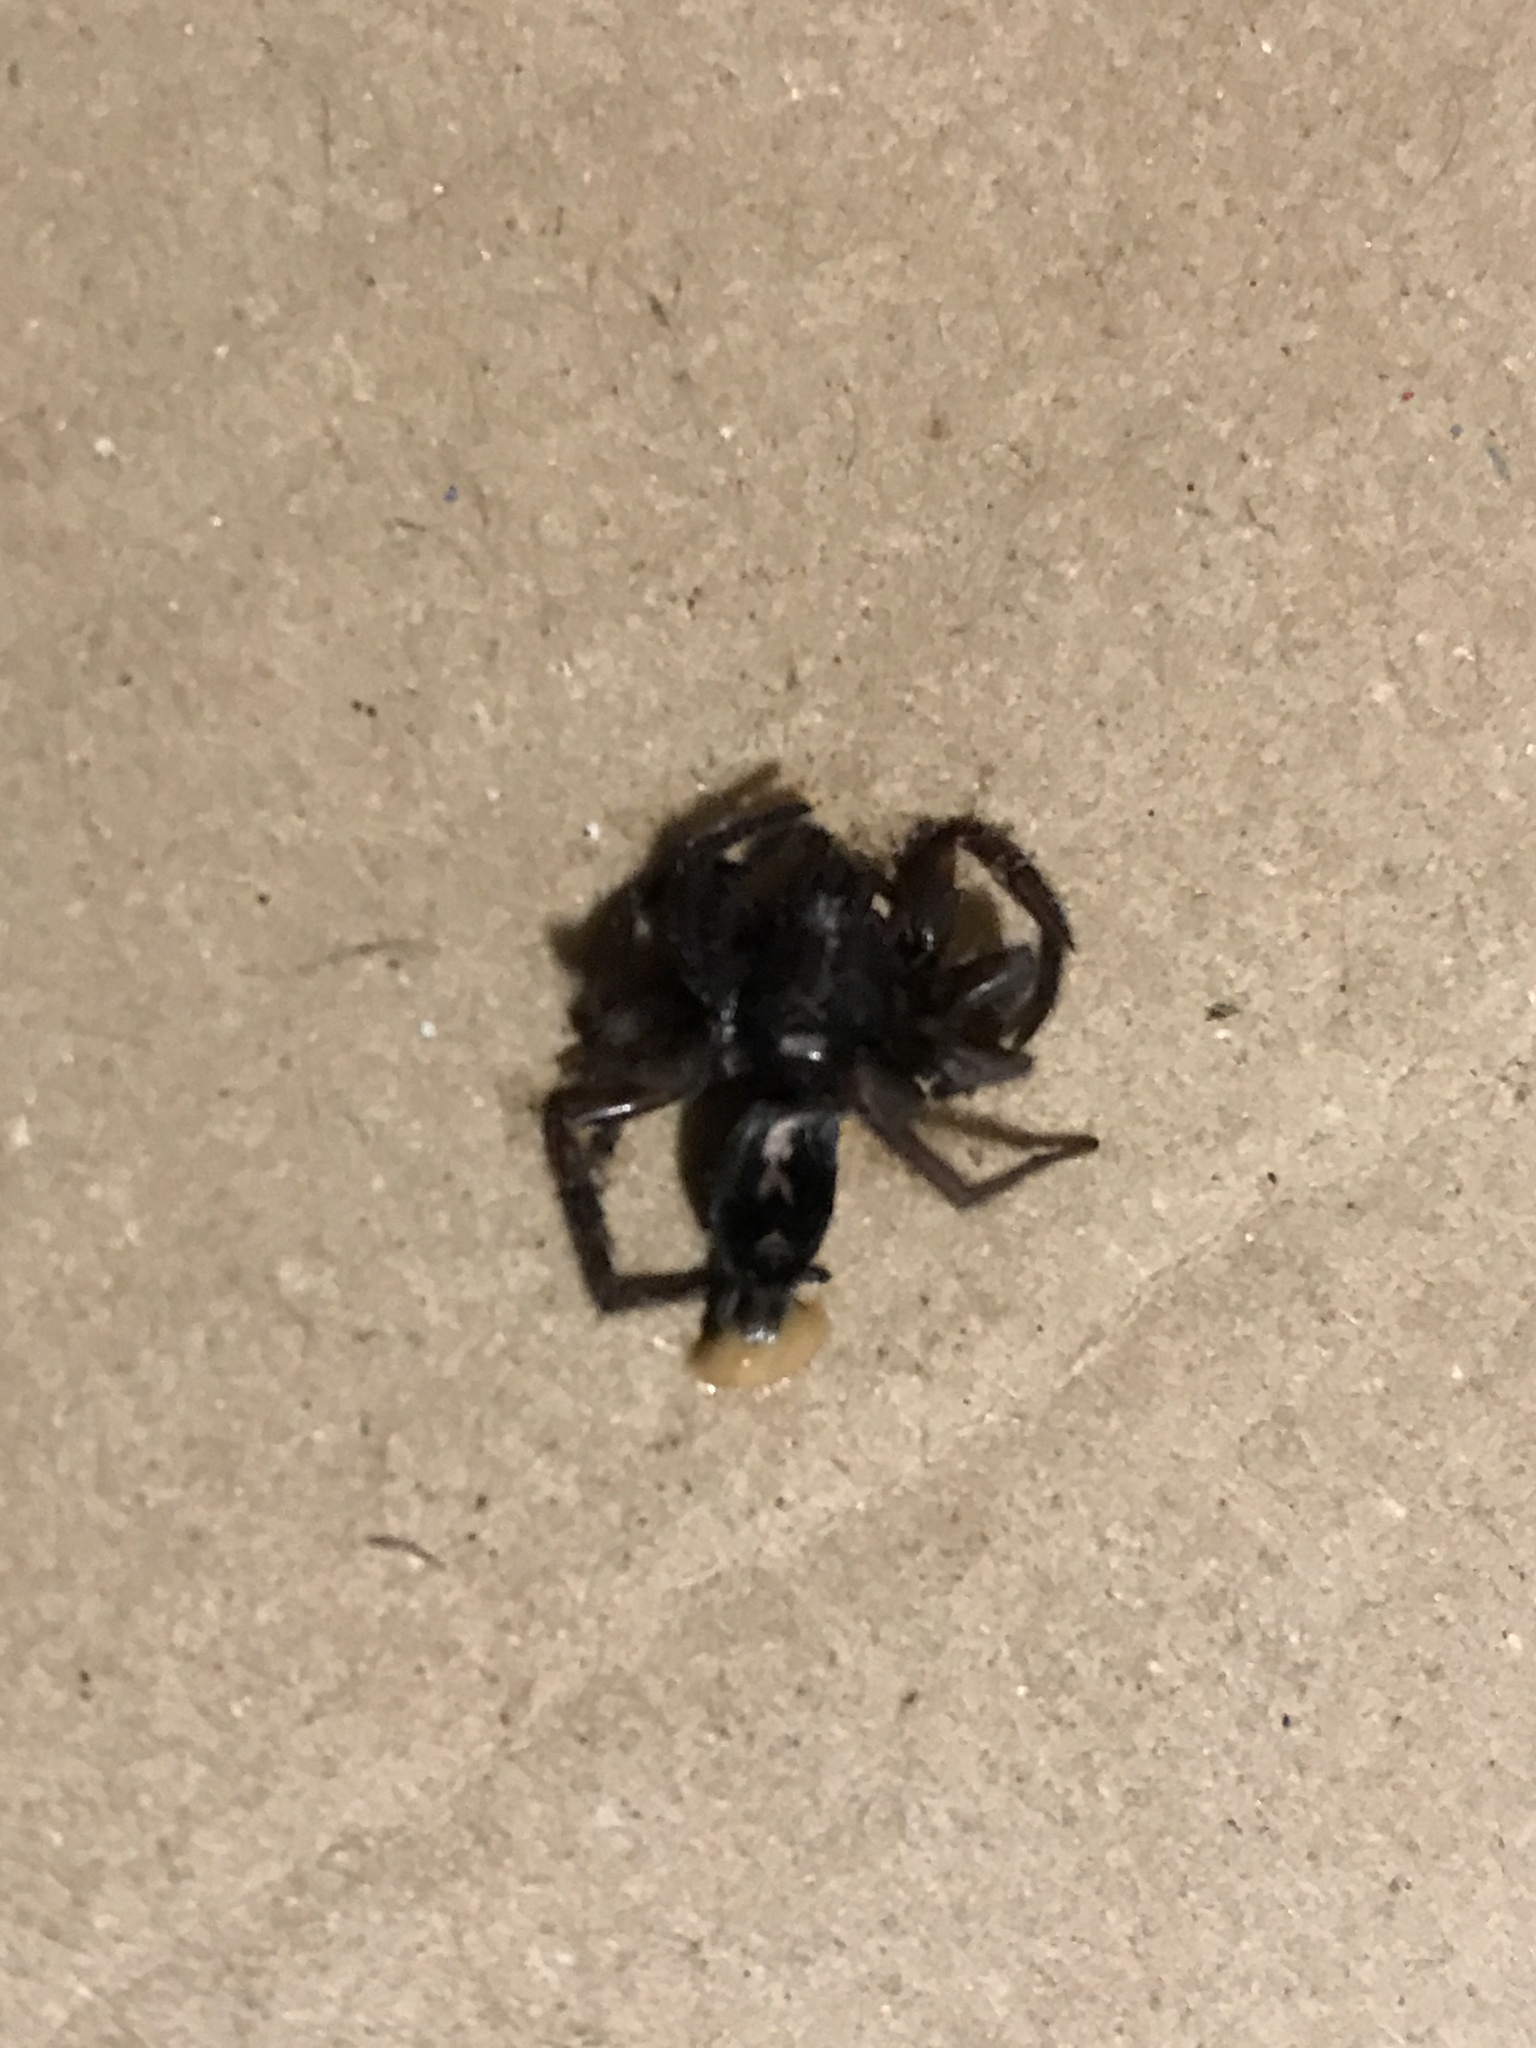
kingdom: Animalia
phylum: Arthropoda
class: Arachnida
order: Araneae
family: Gnaphosidae
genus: Herpyllus
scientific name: Herpyllus ecclesiasticus
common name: Eastern parson spider
